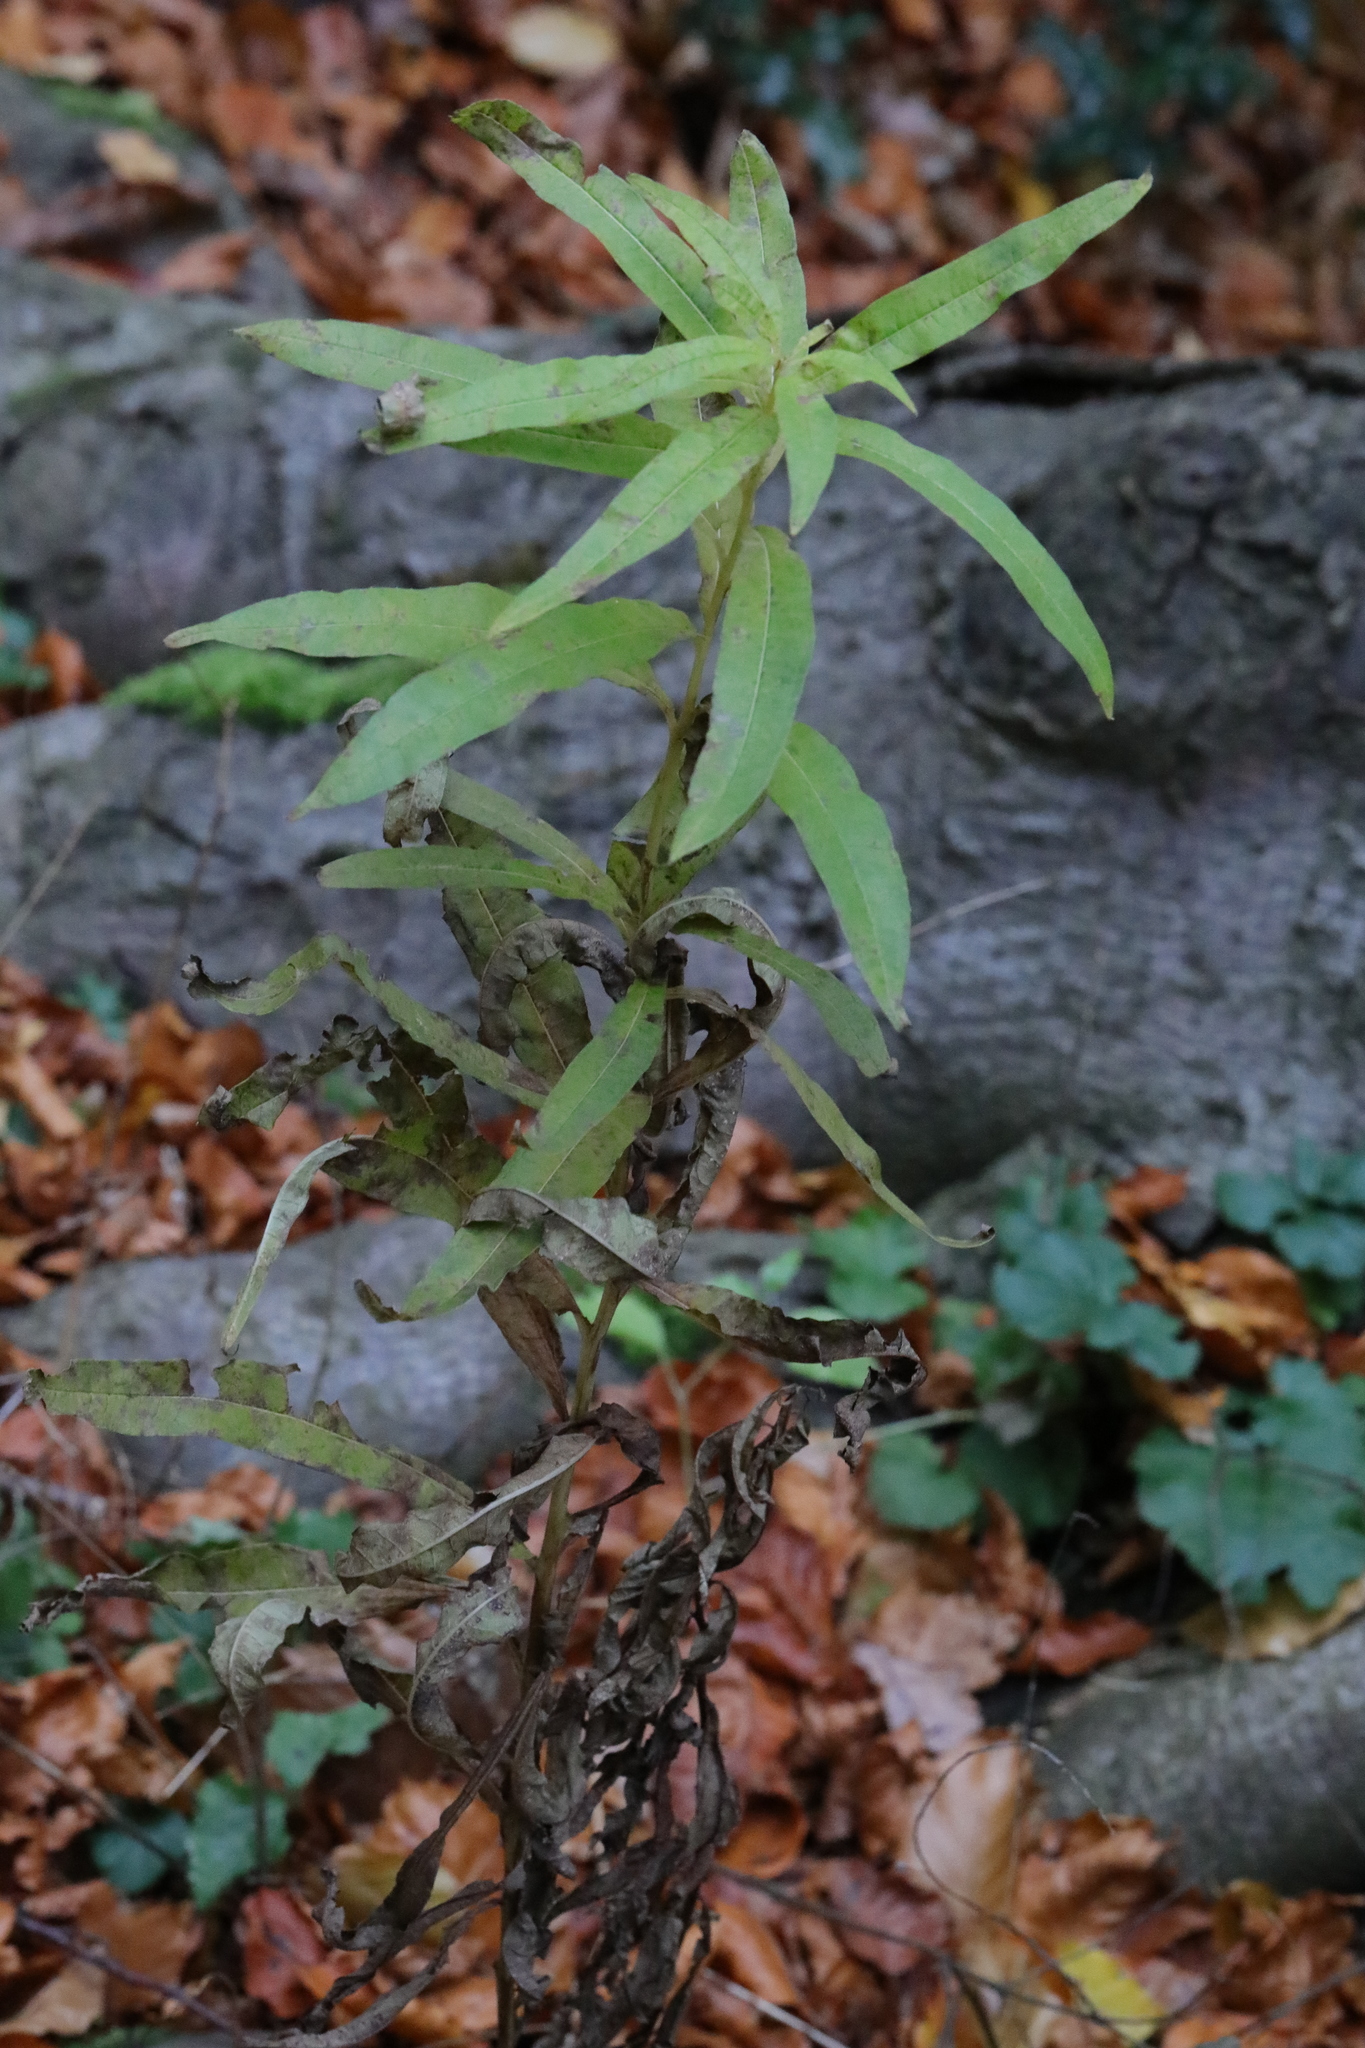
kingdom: Plantae
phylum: Tracheophyta
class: Magnoliopsida
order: Myrtales
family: Onagraceae
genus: Chamaenerion
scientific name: Chamaenerion angustifolium
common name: Fireweed
